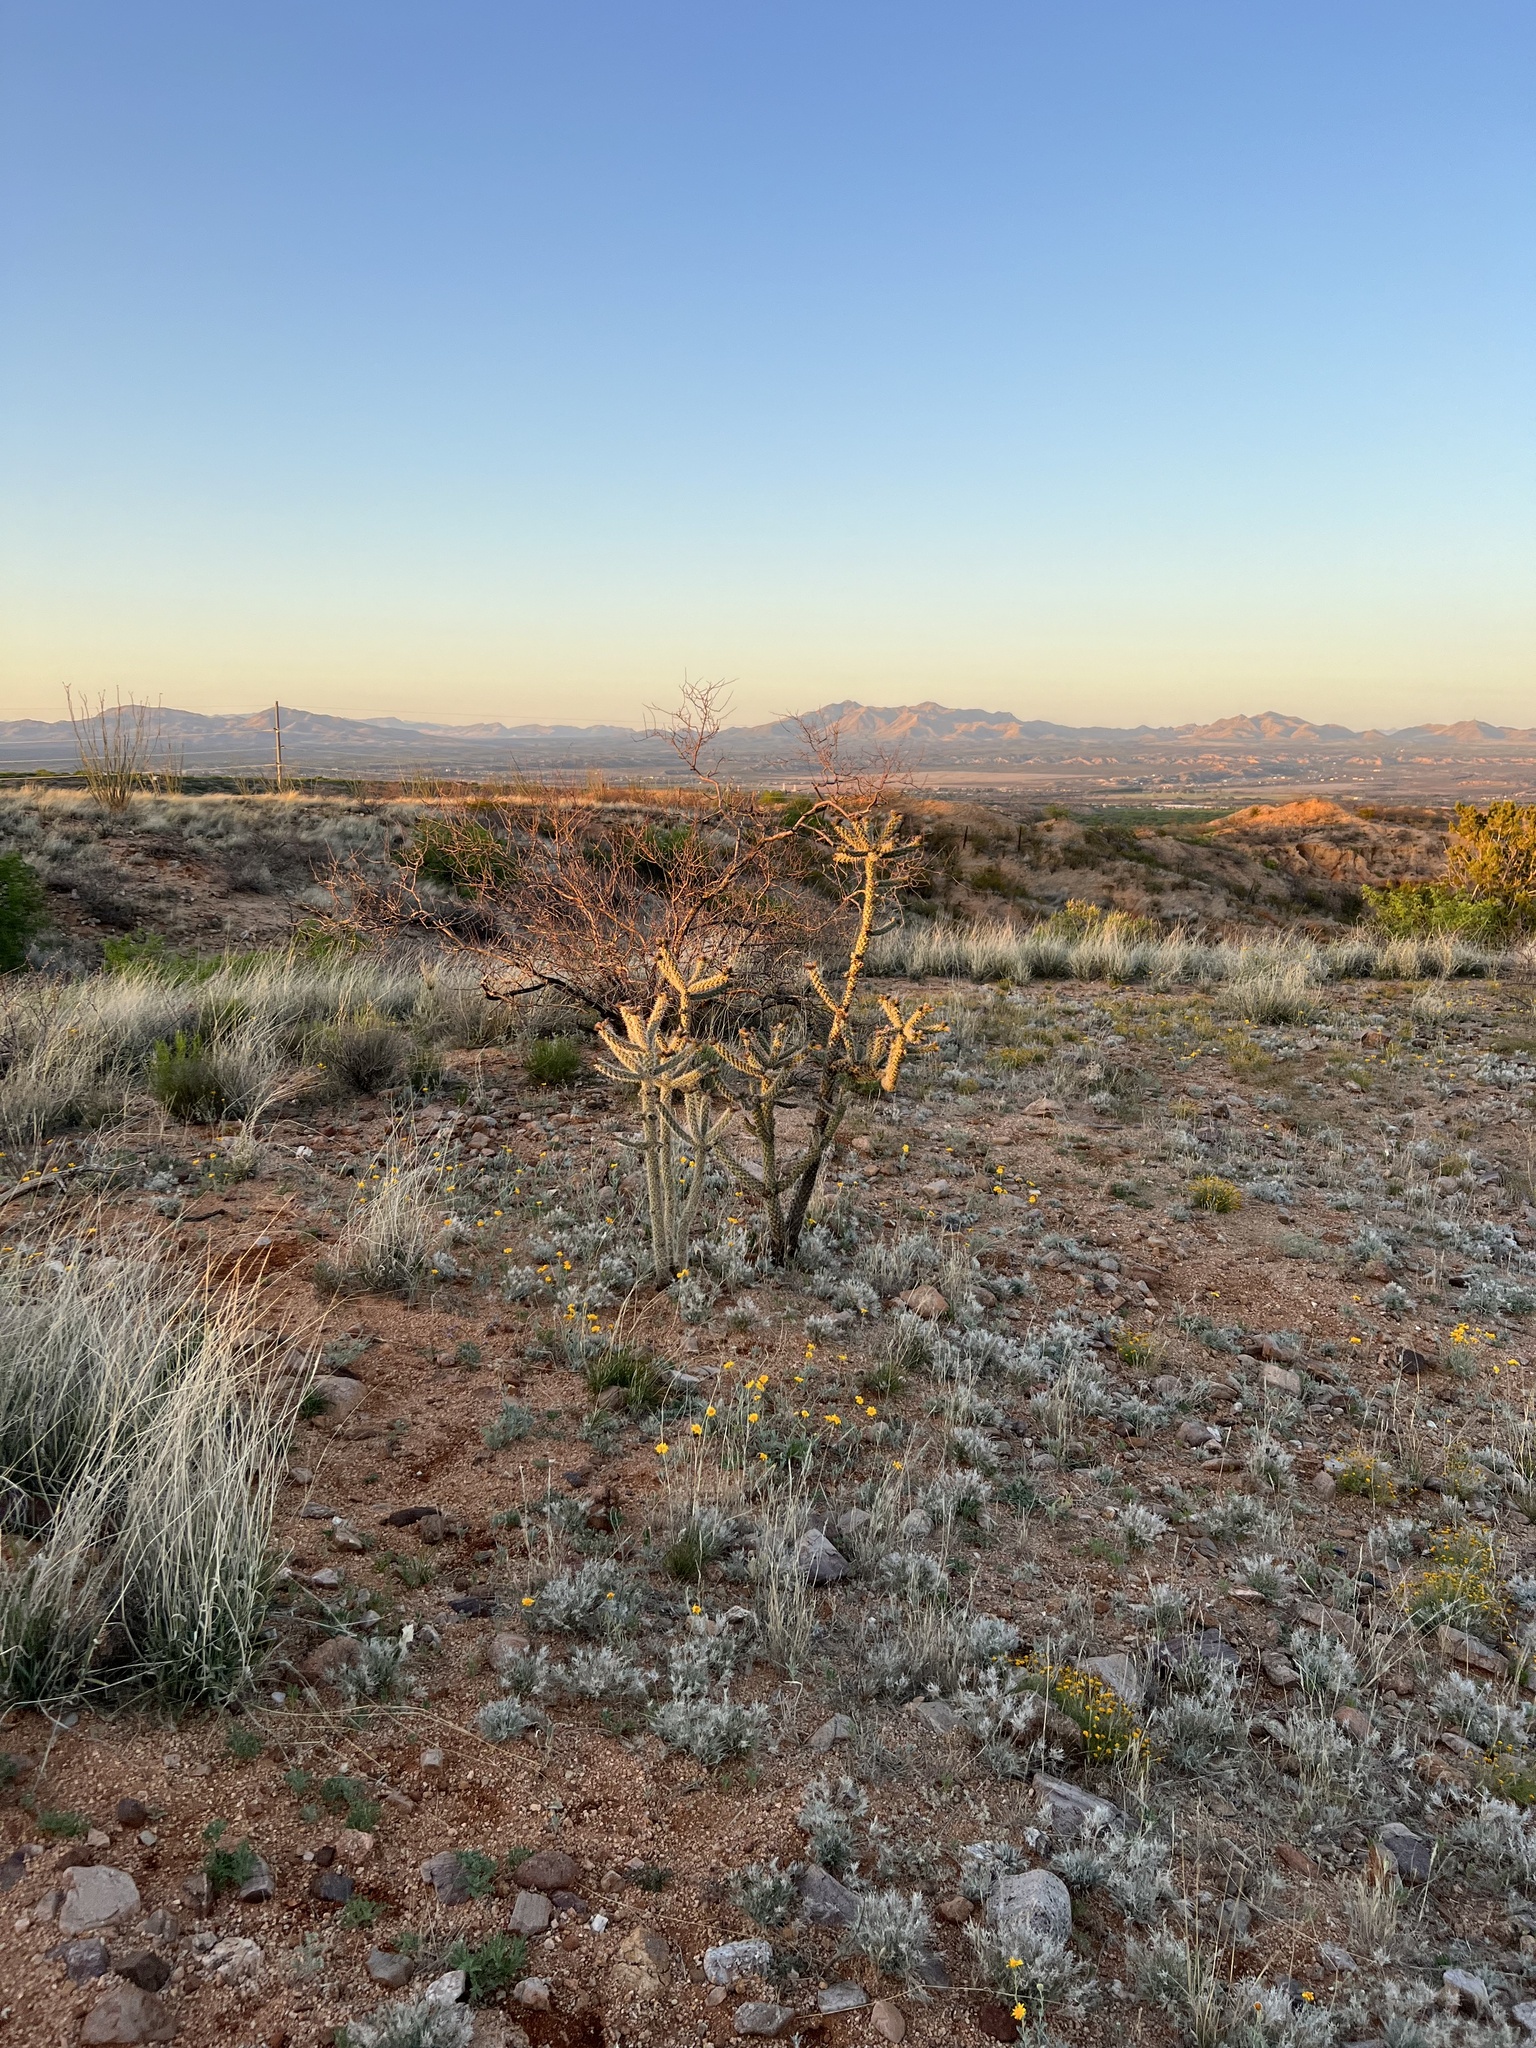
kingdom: Plantae
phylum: Tracheophyta
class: Magnoliopsida
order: Caryophyllales
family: Cactaceae
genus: Cylindropuntia
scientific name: Cylindropuntia imbricata
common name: Candelabrum cactus
